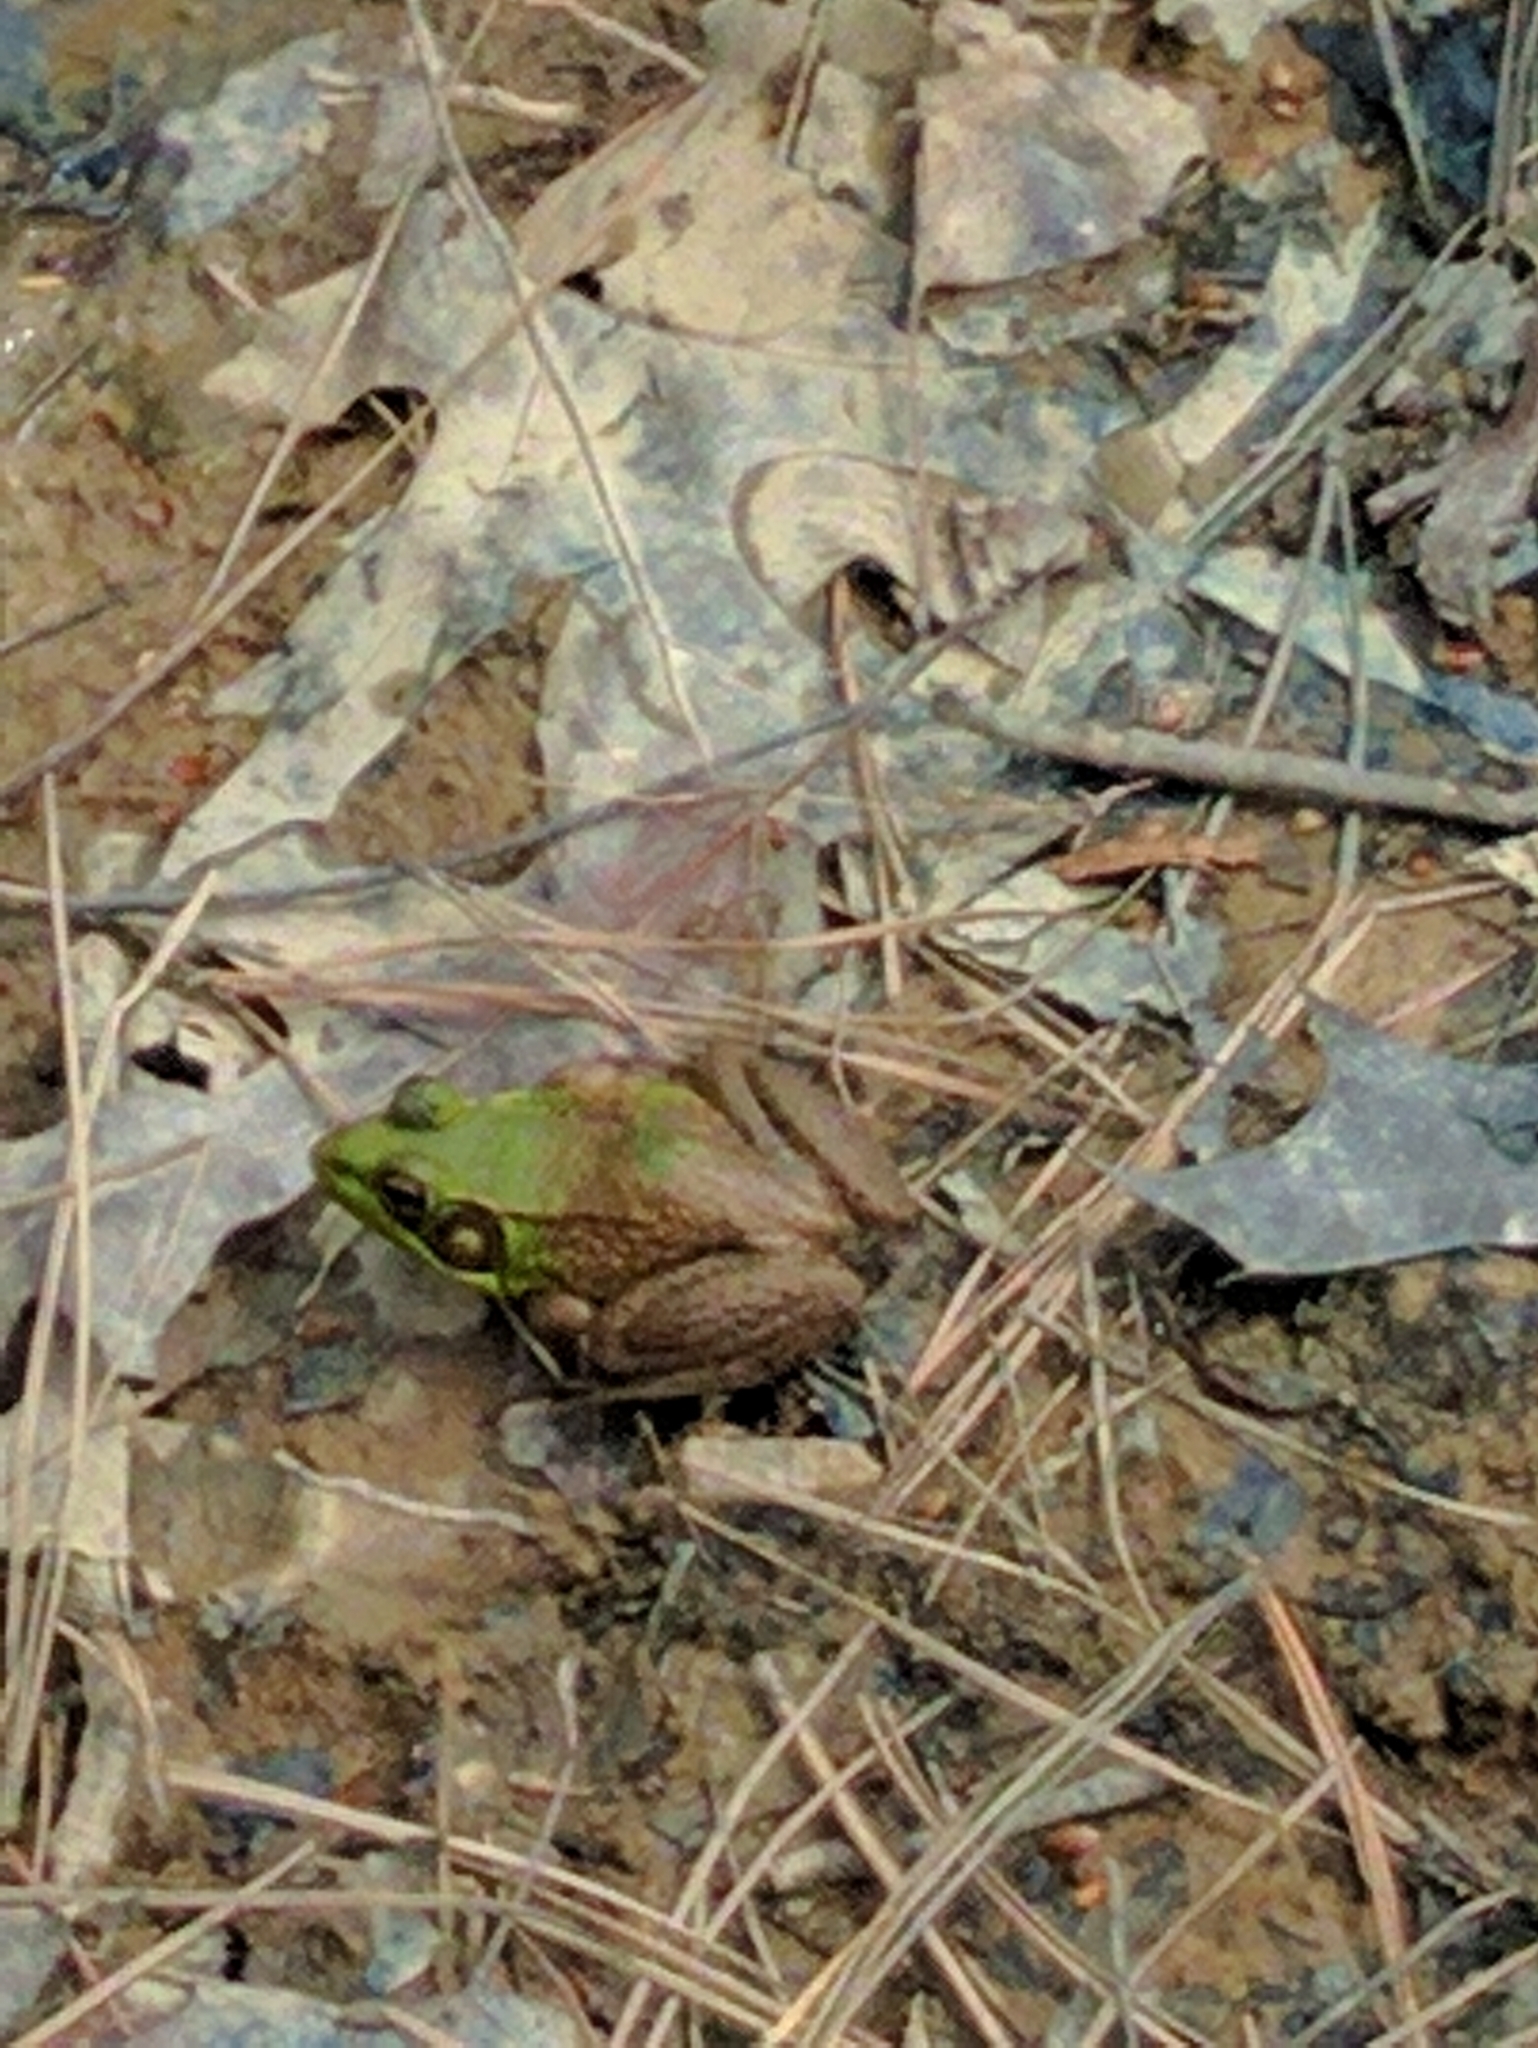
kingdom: Animalia
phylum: Chordata
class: Amphibia
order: Anura
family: Ranidae
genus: Lithobates
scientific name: Lithobates clamitans
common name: Green frog
